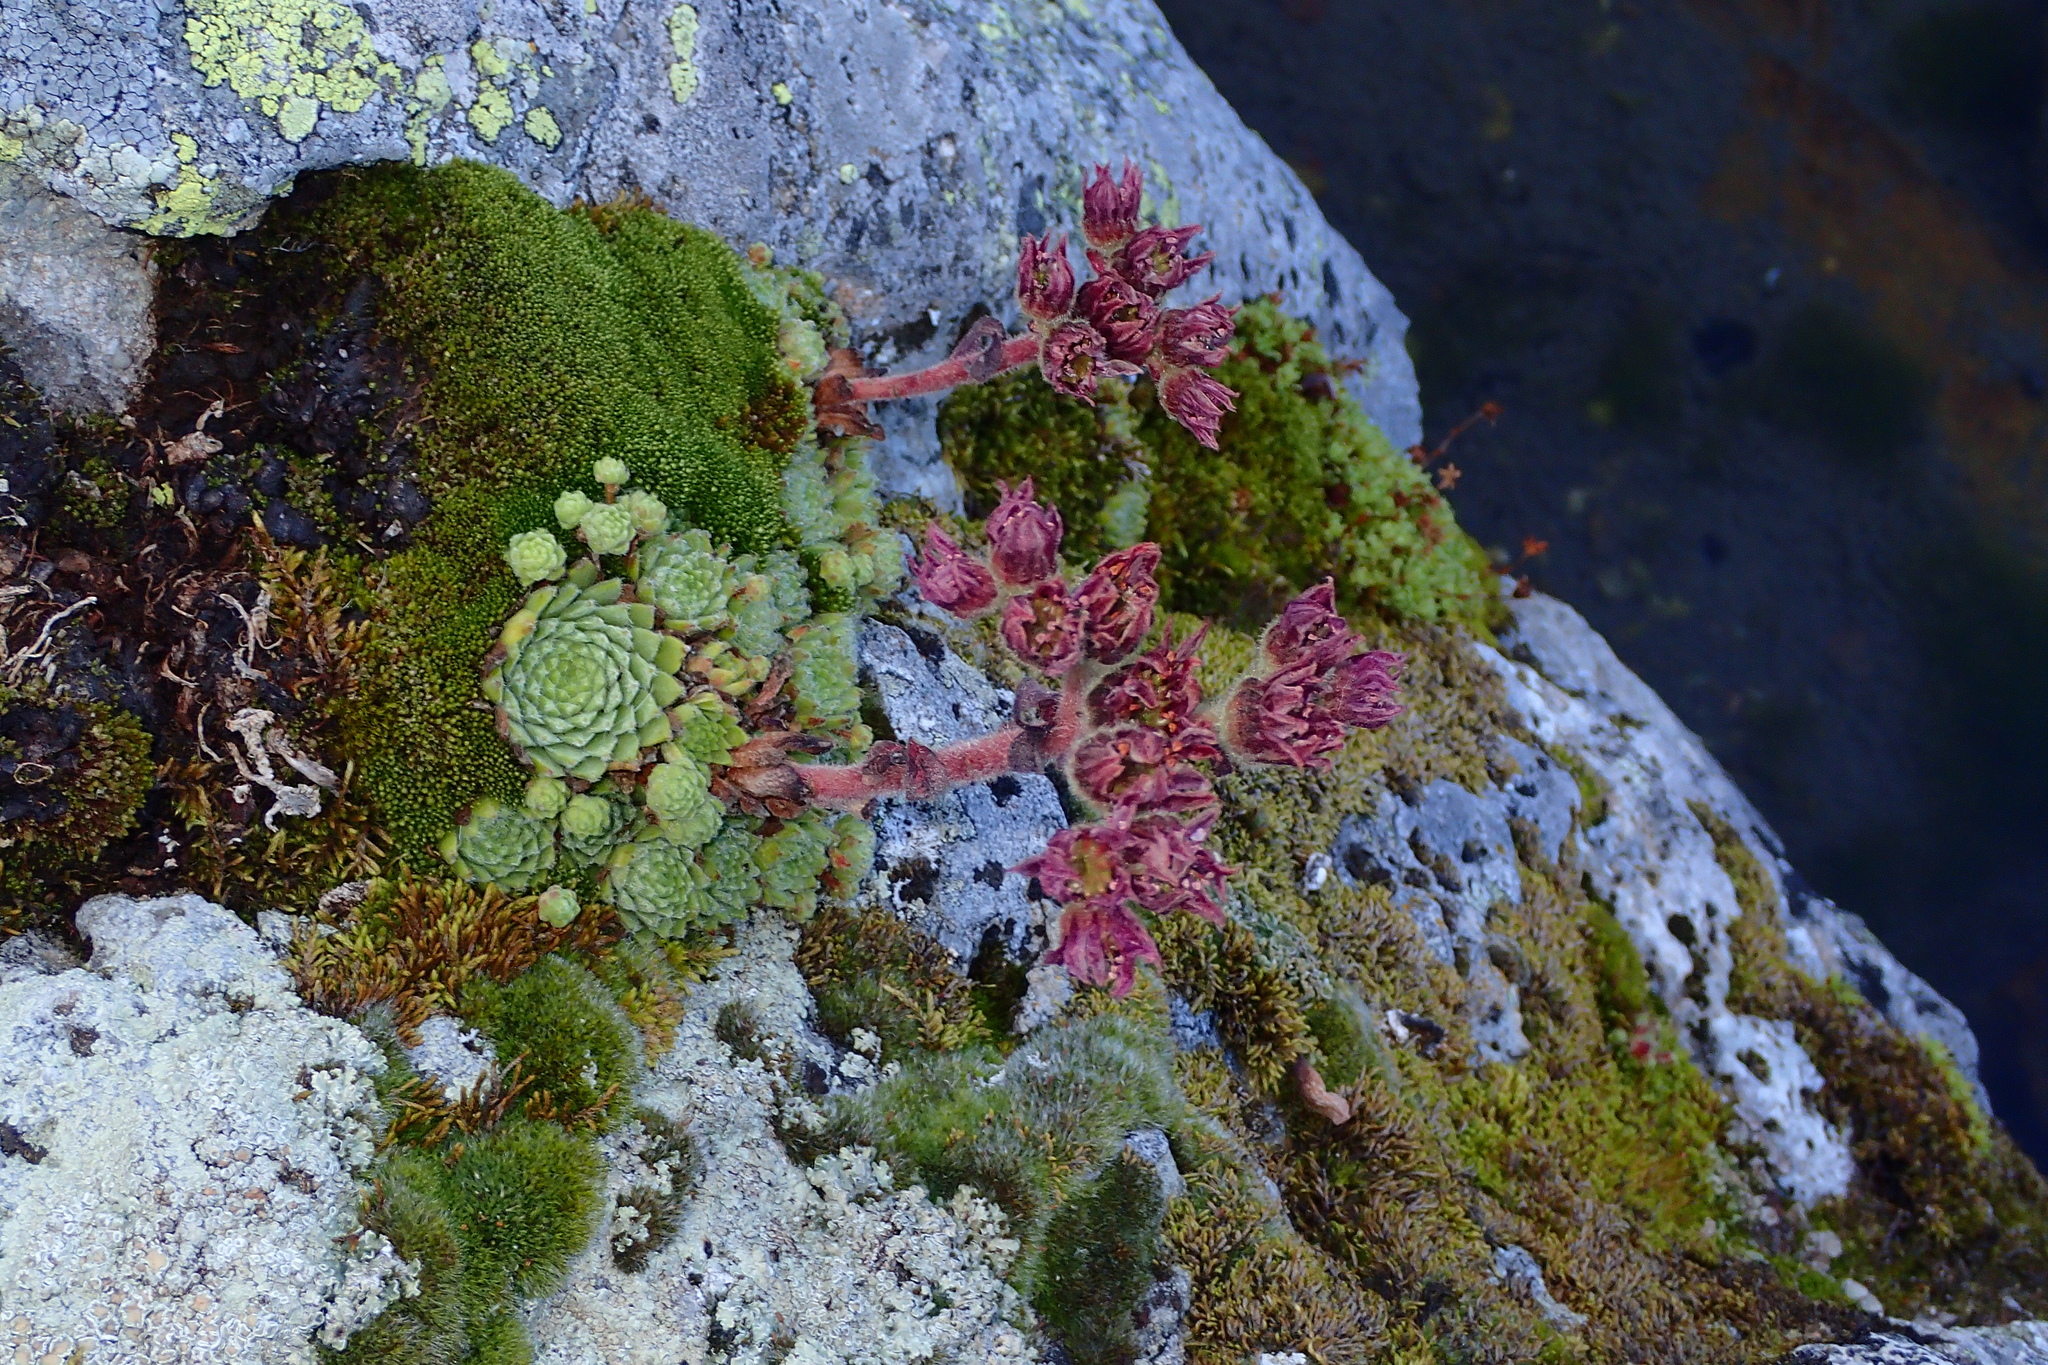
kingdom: Plantae
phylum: Tracheophyta
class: Magnoliopsida
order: Saxifragales
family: Crassulaceae
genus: Sempervivum
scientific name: Sempervivum montanum
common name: Mountain house-leek
